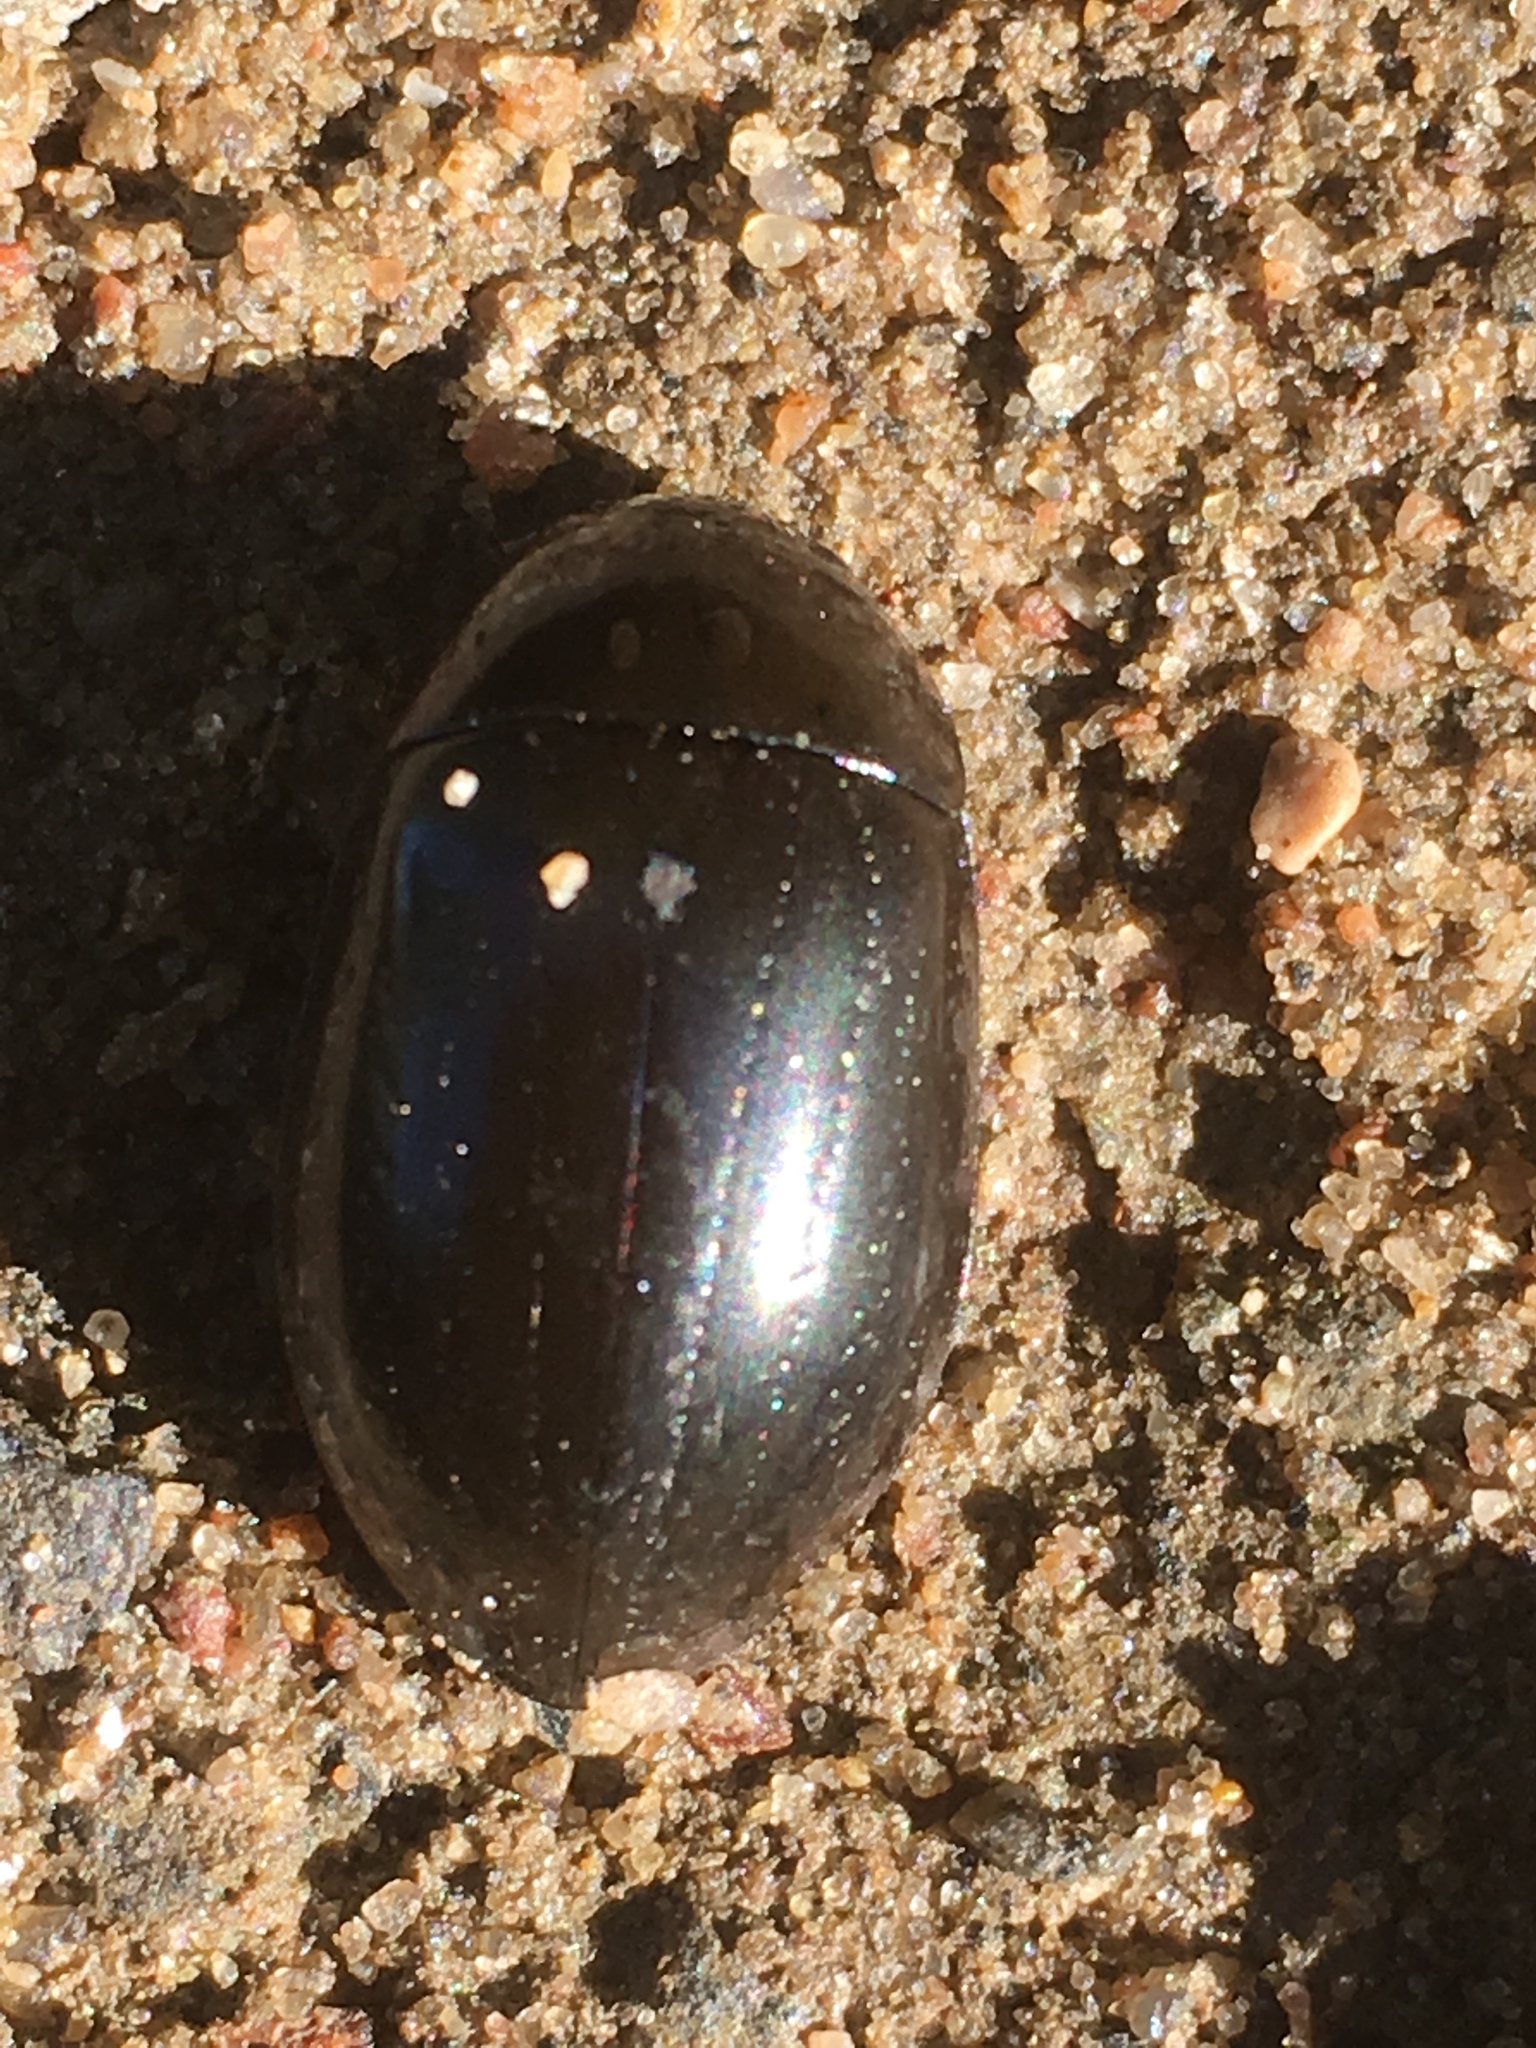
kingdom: Animalia
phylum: Arthropoda
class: Insecta
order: Coleoptera
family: Hydrophilidae
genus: Hydrochara
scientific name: Hydrochara caraboides
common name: Lesser silver water beetle
